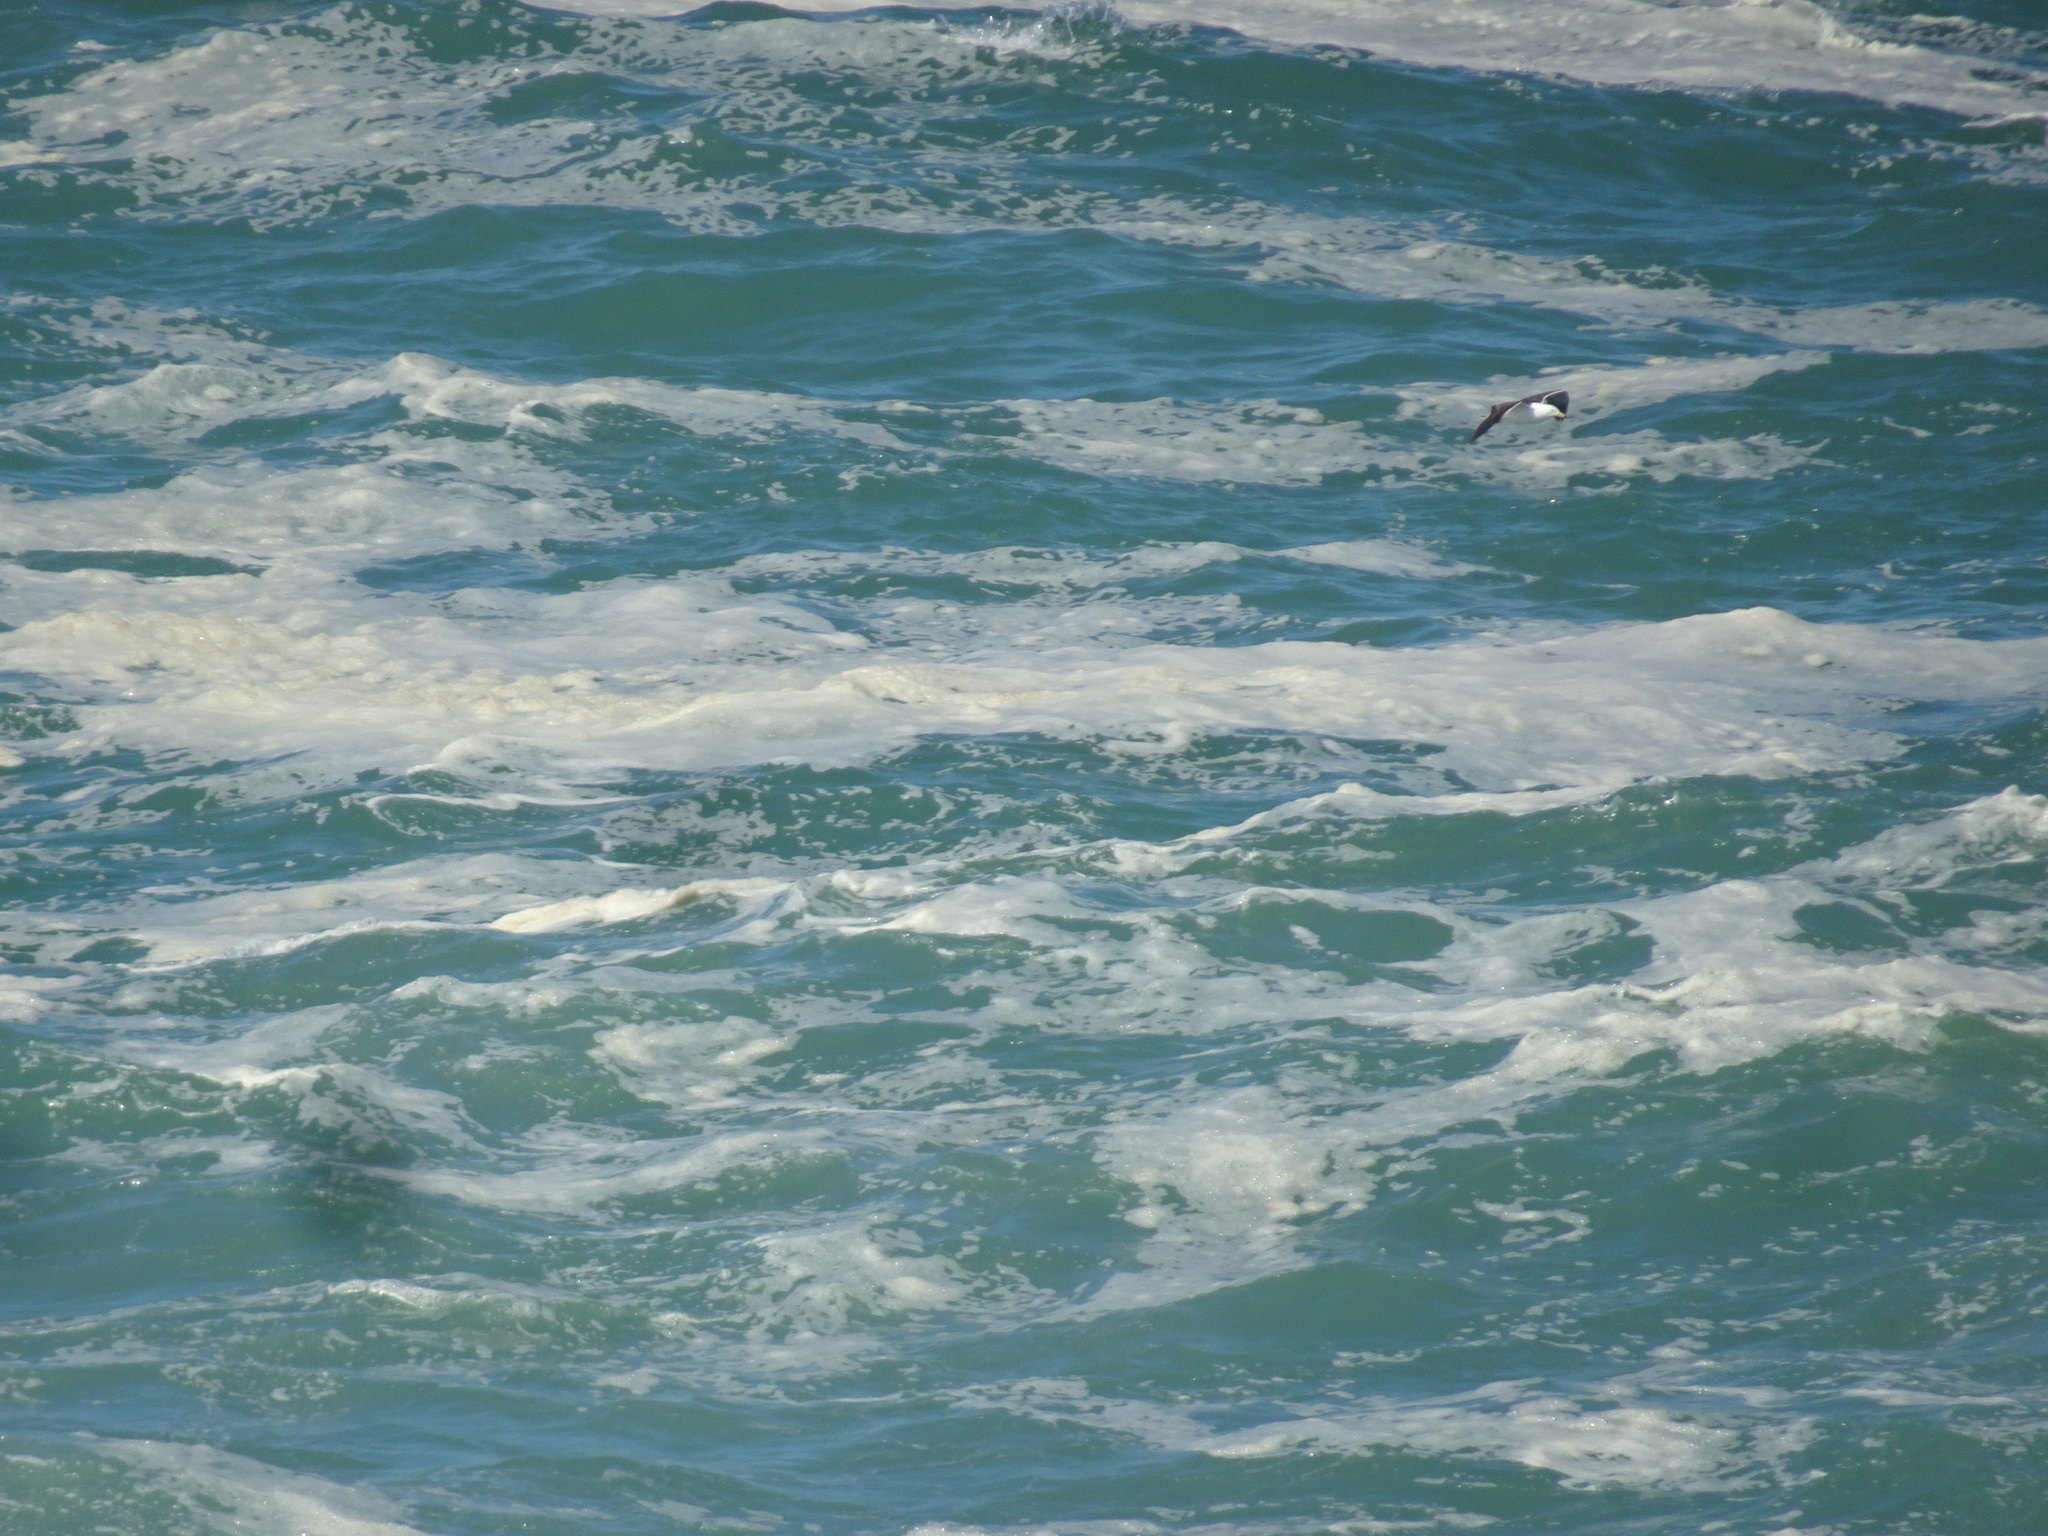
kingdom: Animalia
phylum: Chordata
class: Aves
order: Charadriiformes
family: Laridae
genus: Larus
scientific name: Larus dominicanus
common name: Kelp gull
